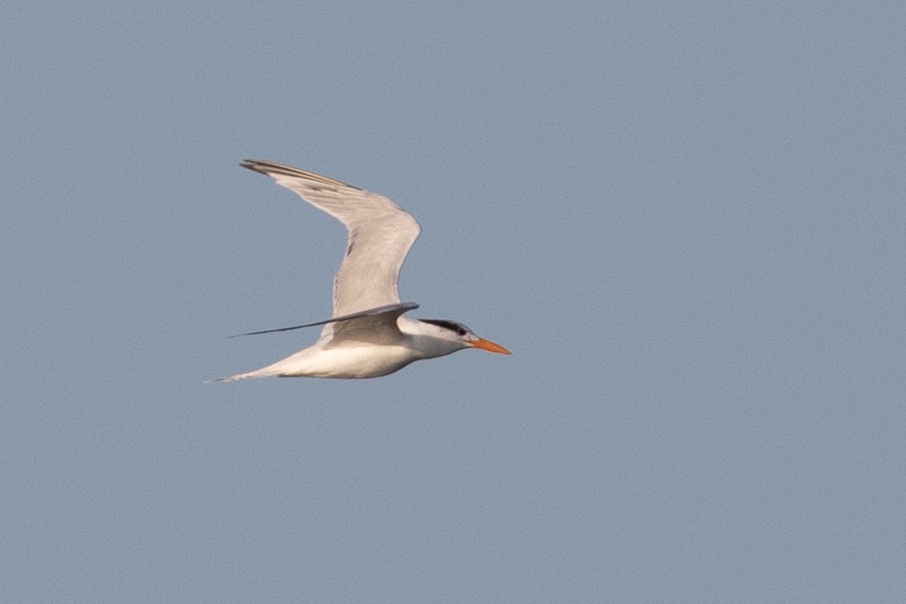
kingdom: Animalia
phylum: Chordata
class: Aves
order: Charadriiformes
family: Laridae
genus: Thalasseus
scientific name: Thalasseus maximus
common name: Royal tern
